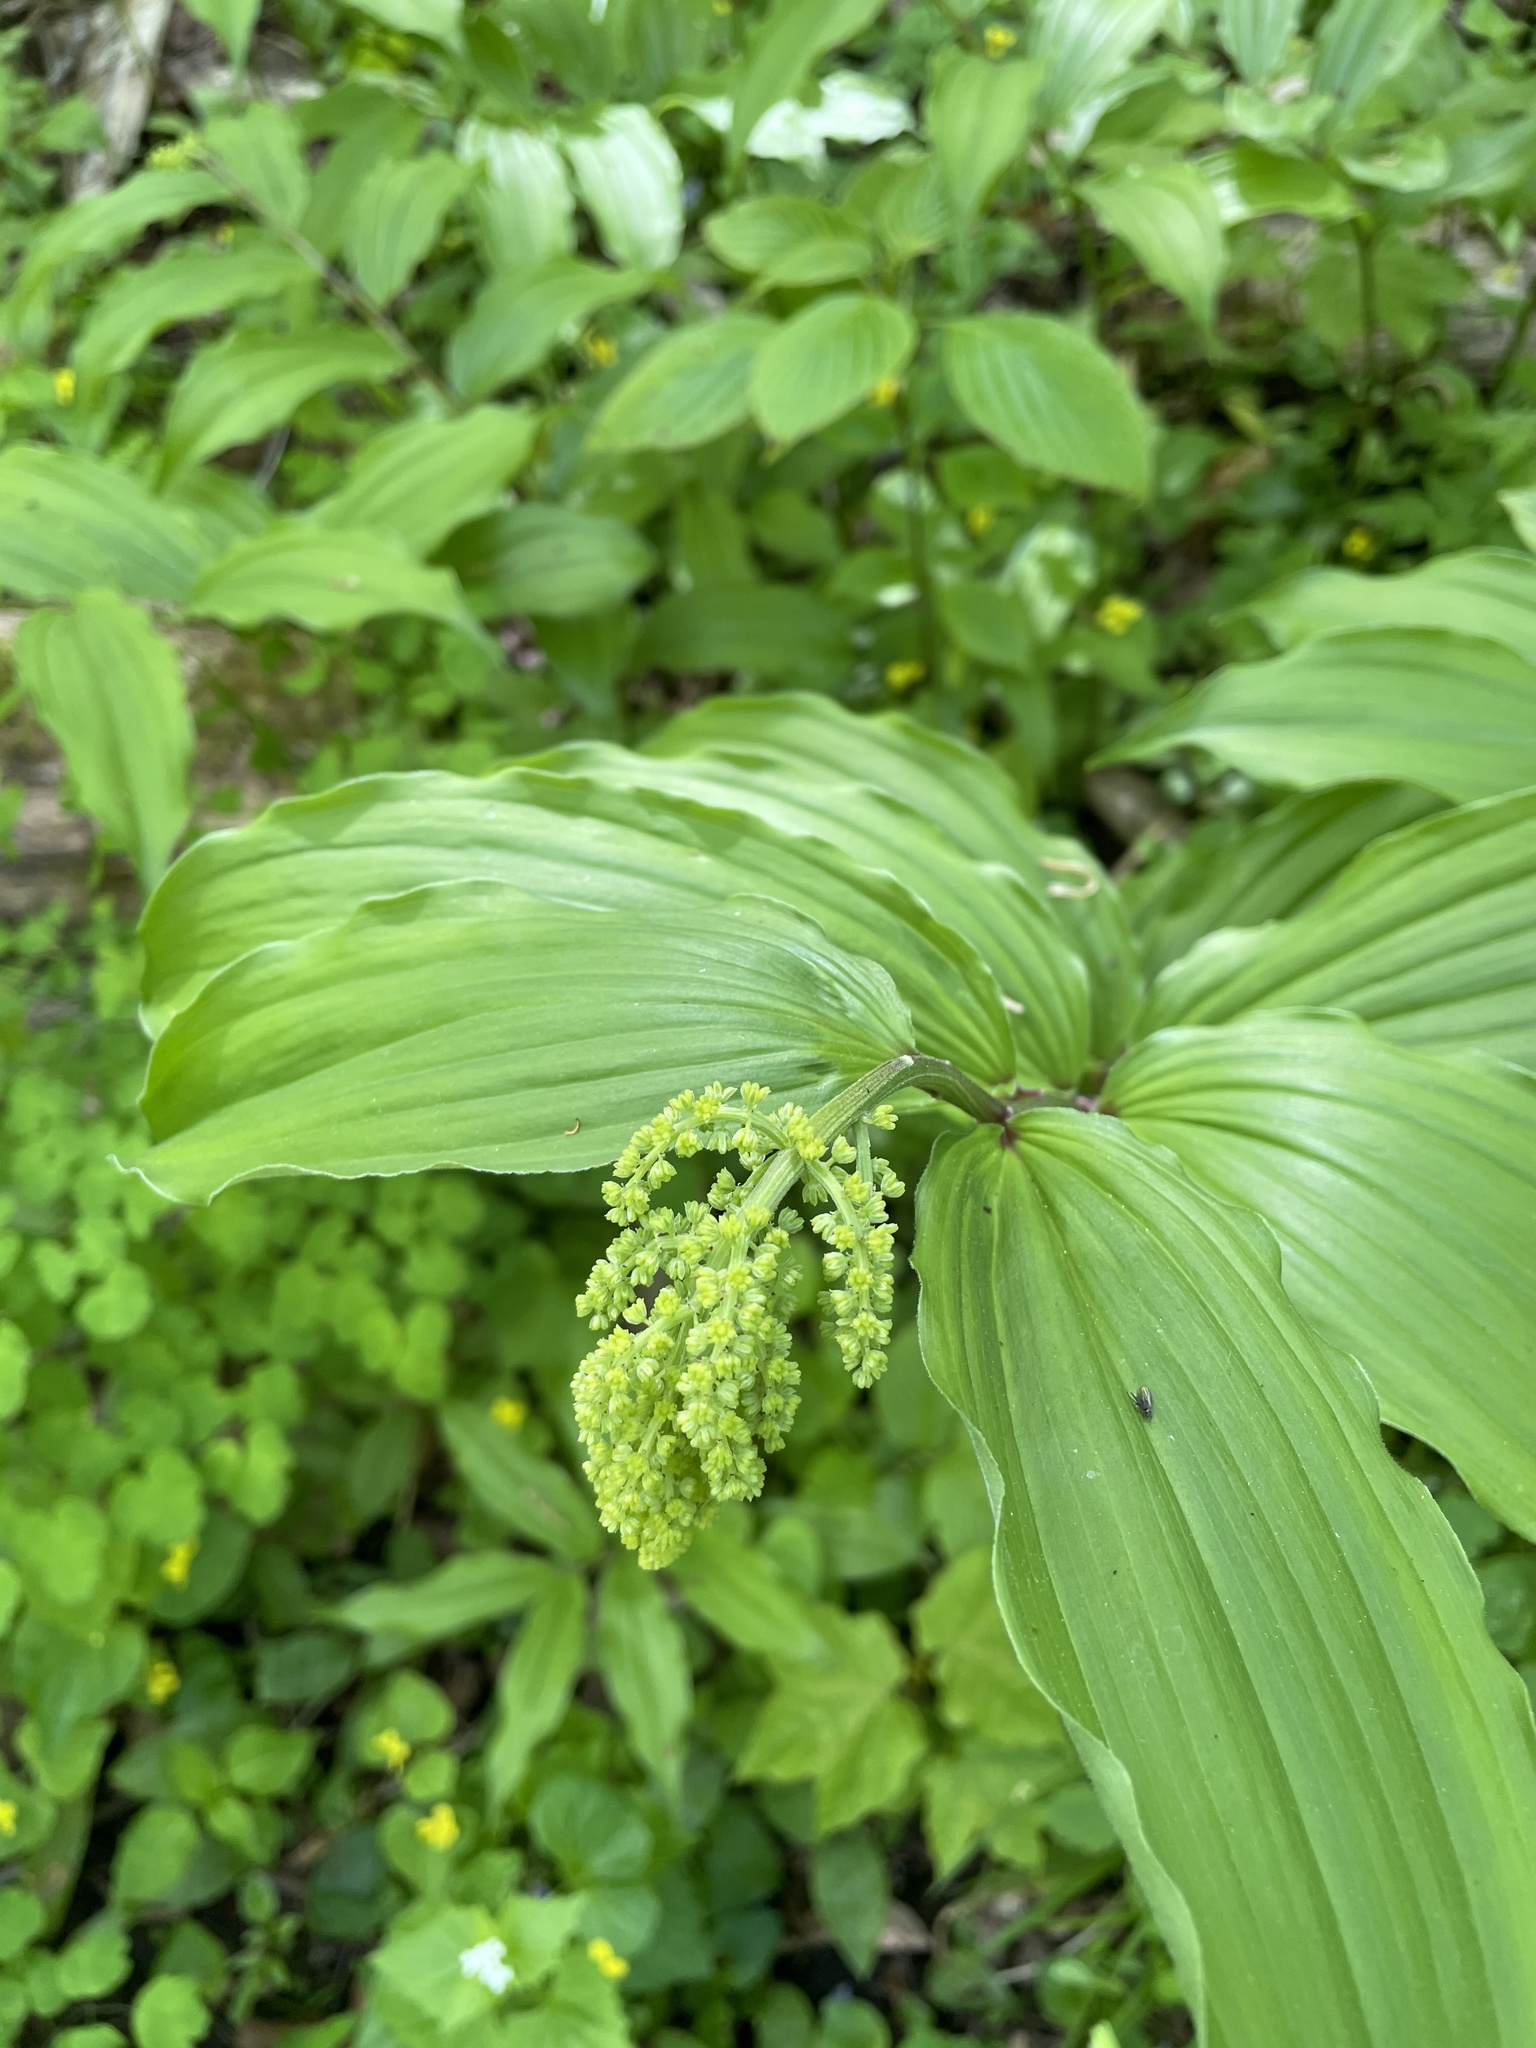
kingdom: Plantae
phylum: Tracheophyta
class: Liliopsida
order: Asparagales
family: Asparagaceae
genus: Maianthemum
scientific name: Maianthemum racemosum
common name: False spikenard
